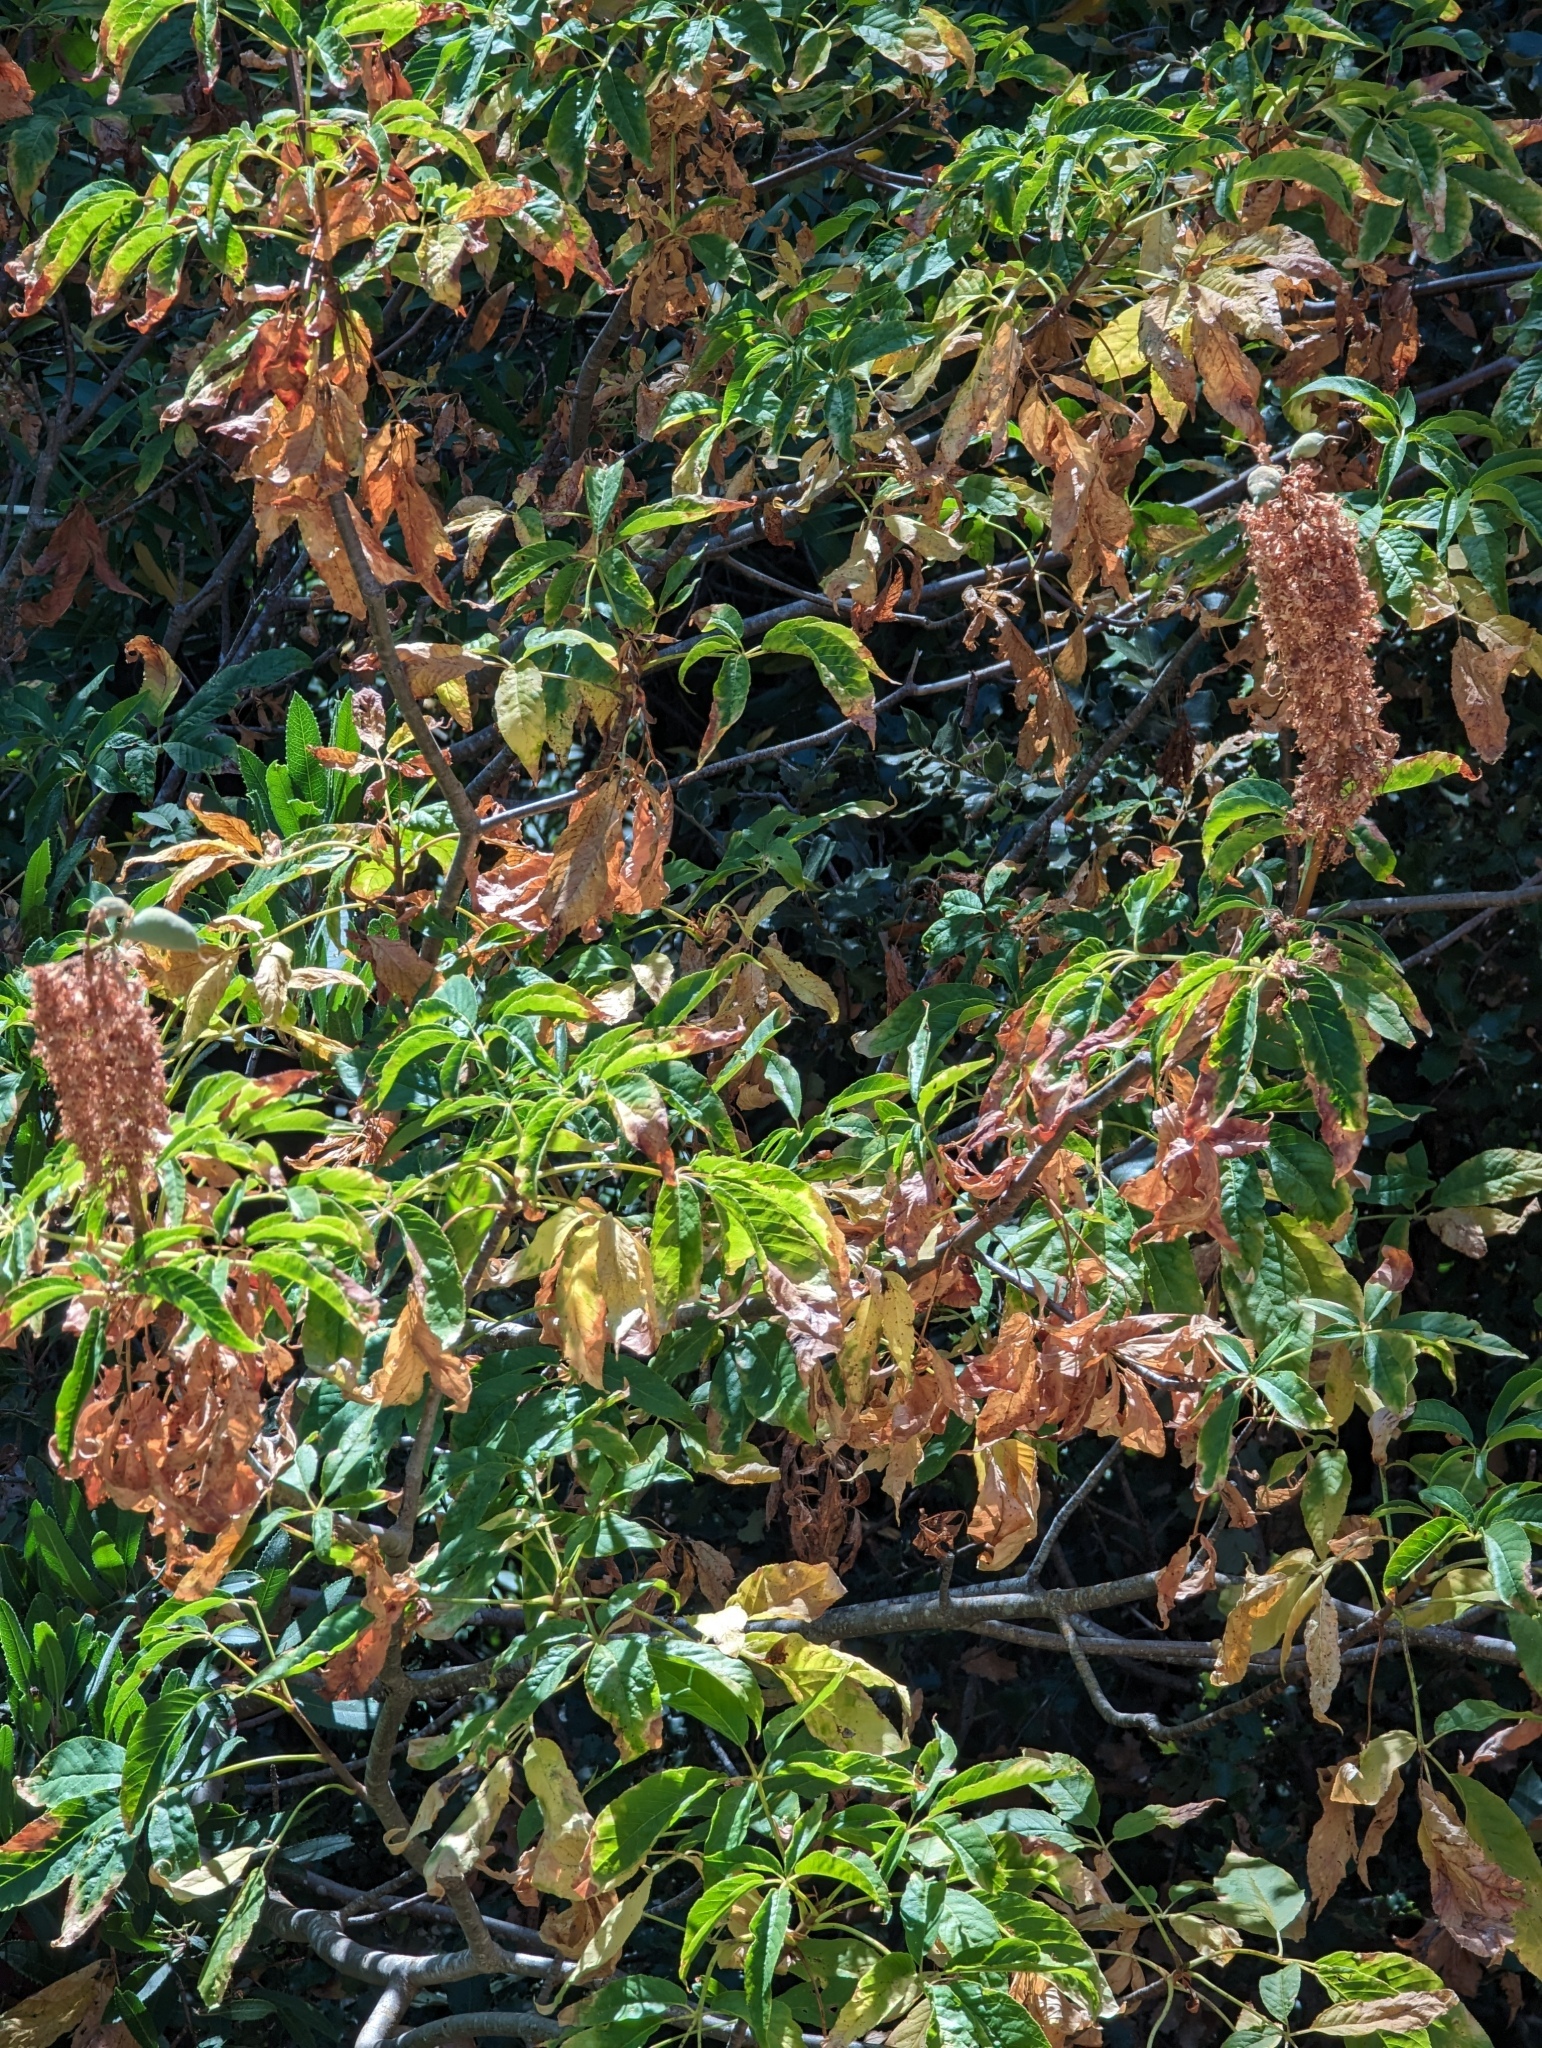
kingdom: Plantae
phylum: Tracheophyta
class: Magnoliopsida
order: Sapindales
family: Sapindaceae
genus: Aesculus
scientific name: Aesculus californica
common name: California buckeye
